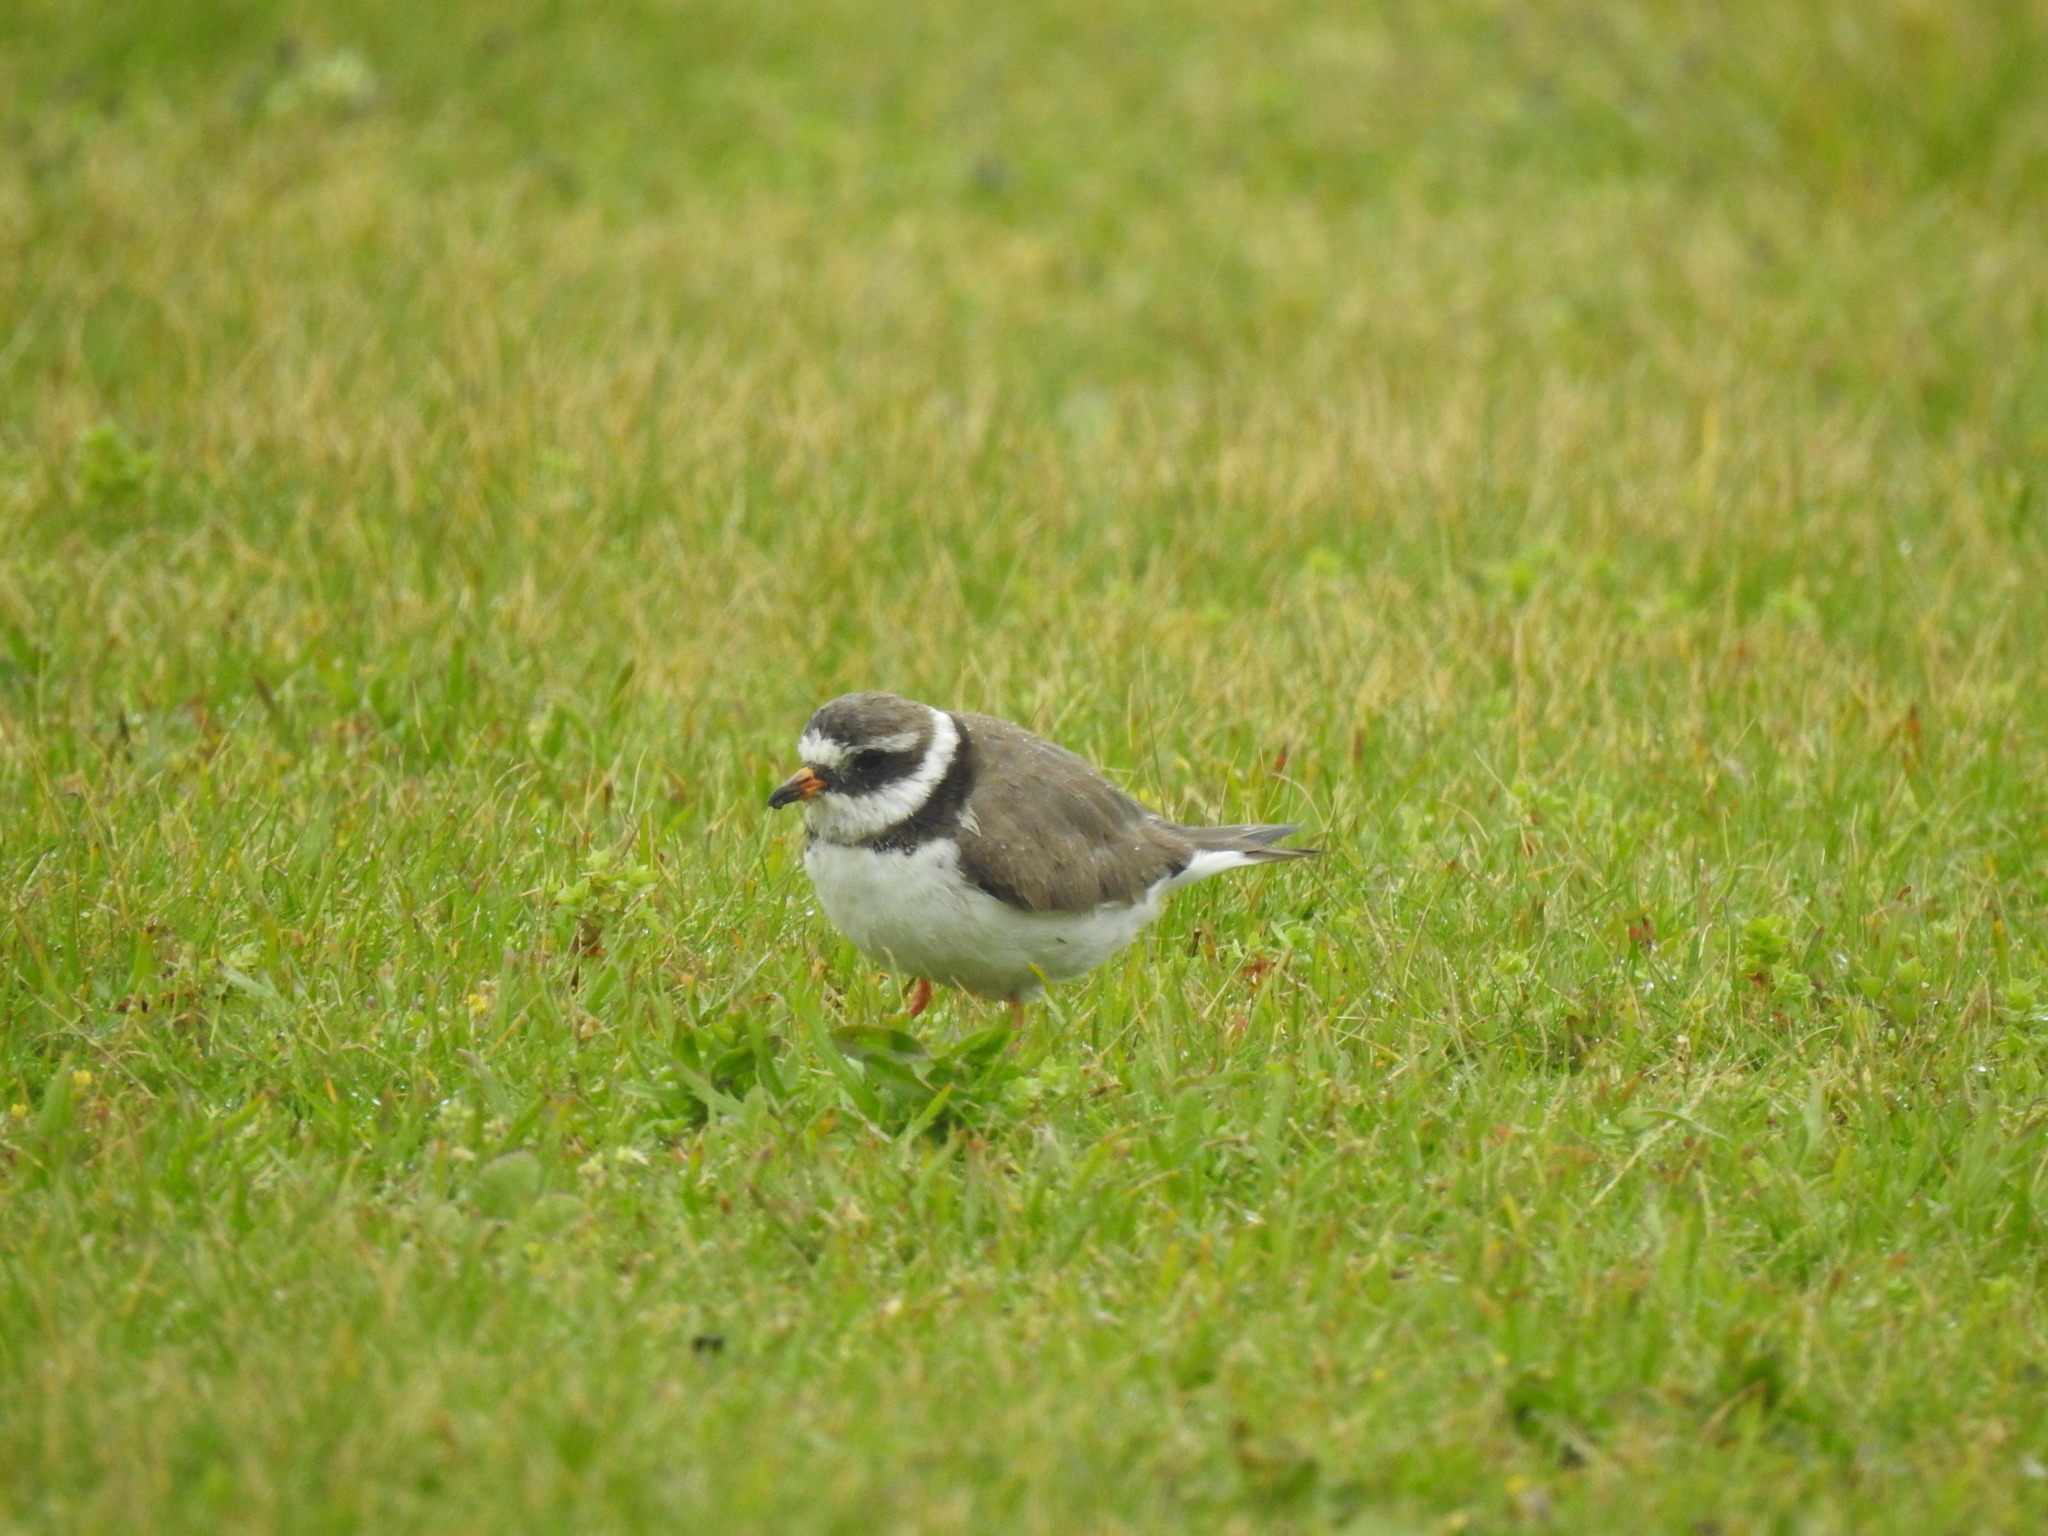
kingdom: Animalia
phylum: Chordata
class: Aves
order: Charadriiformes
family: Charadriidae
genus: Charadrius
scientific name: Charadrius hiaticula
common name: Common ringed plover
